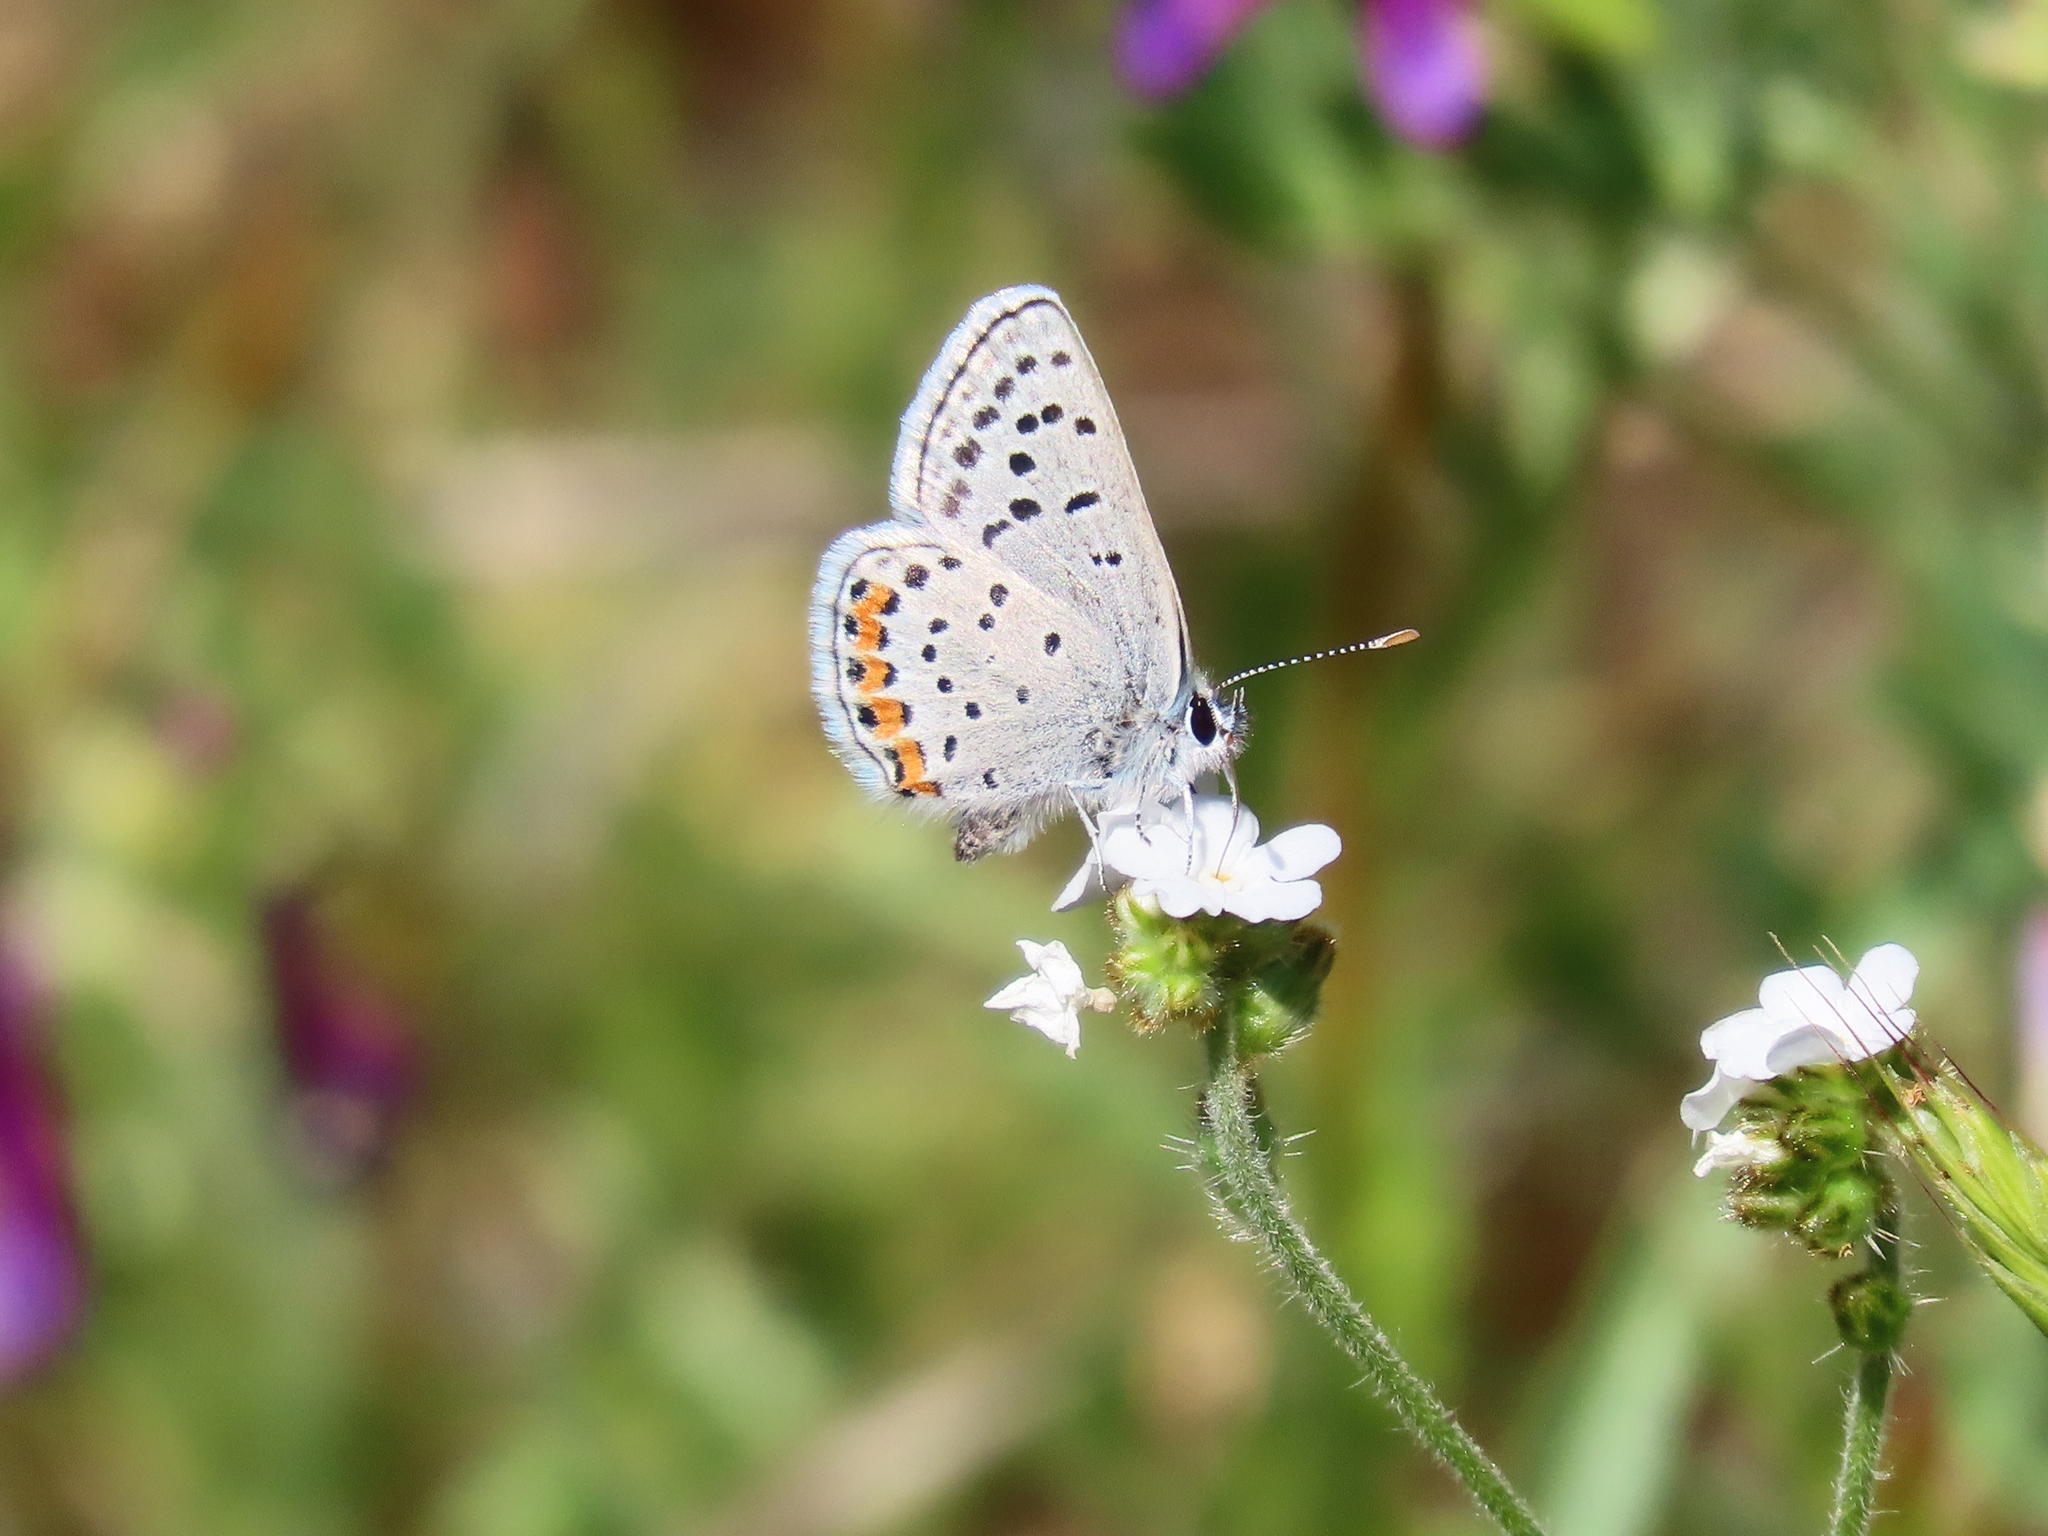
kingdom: Animalia
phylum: Arthropoda
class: Insecta
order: Lepidoptera
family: Lycaenidae
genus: Icaricia
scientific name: Icaricia acmon
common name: Acmon blue
